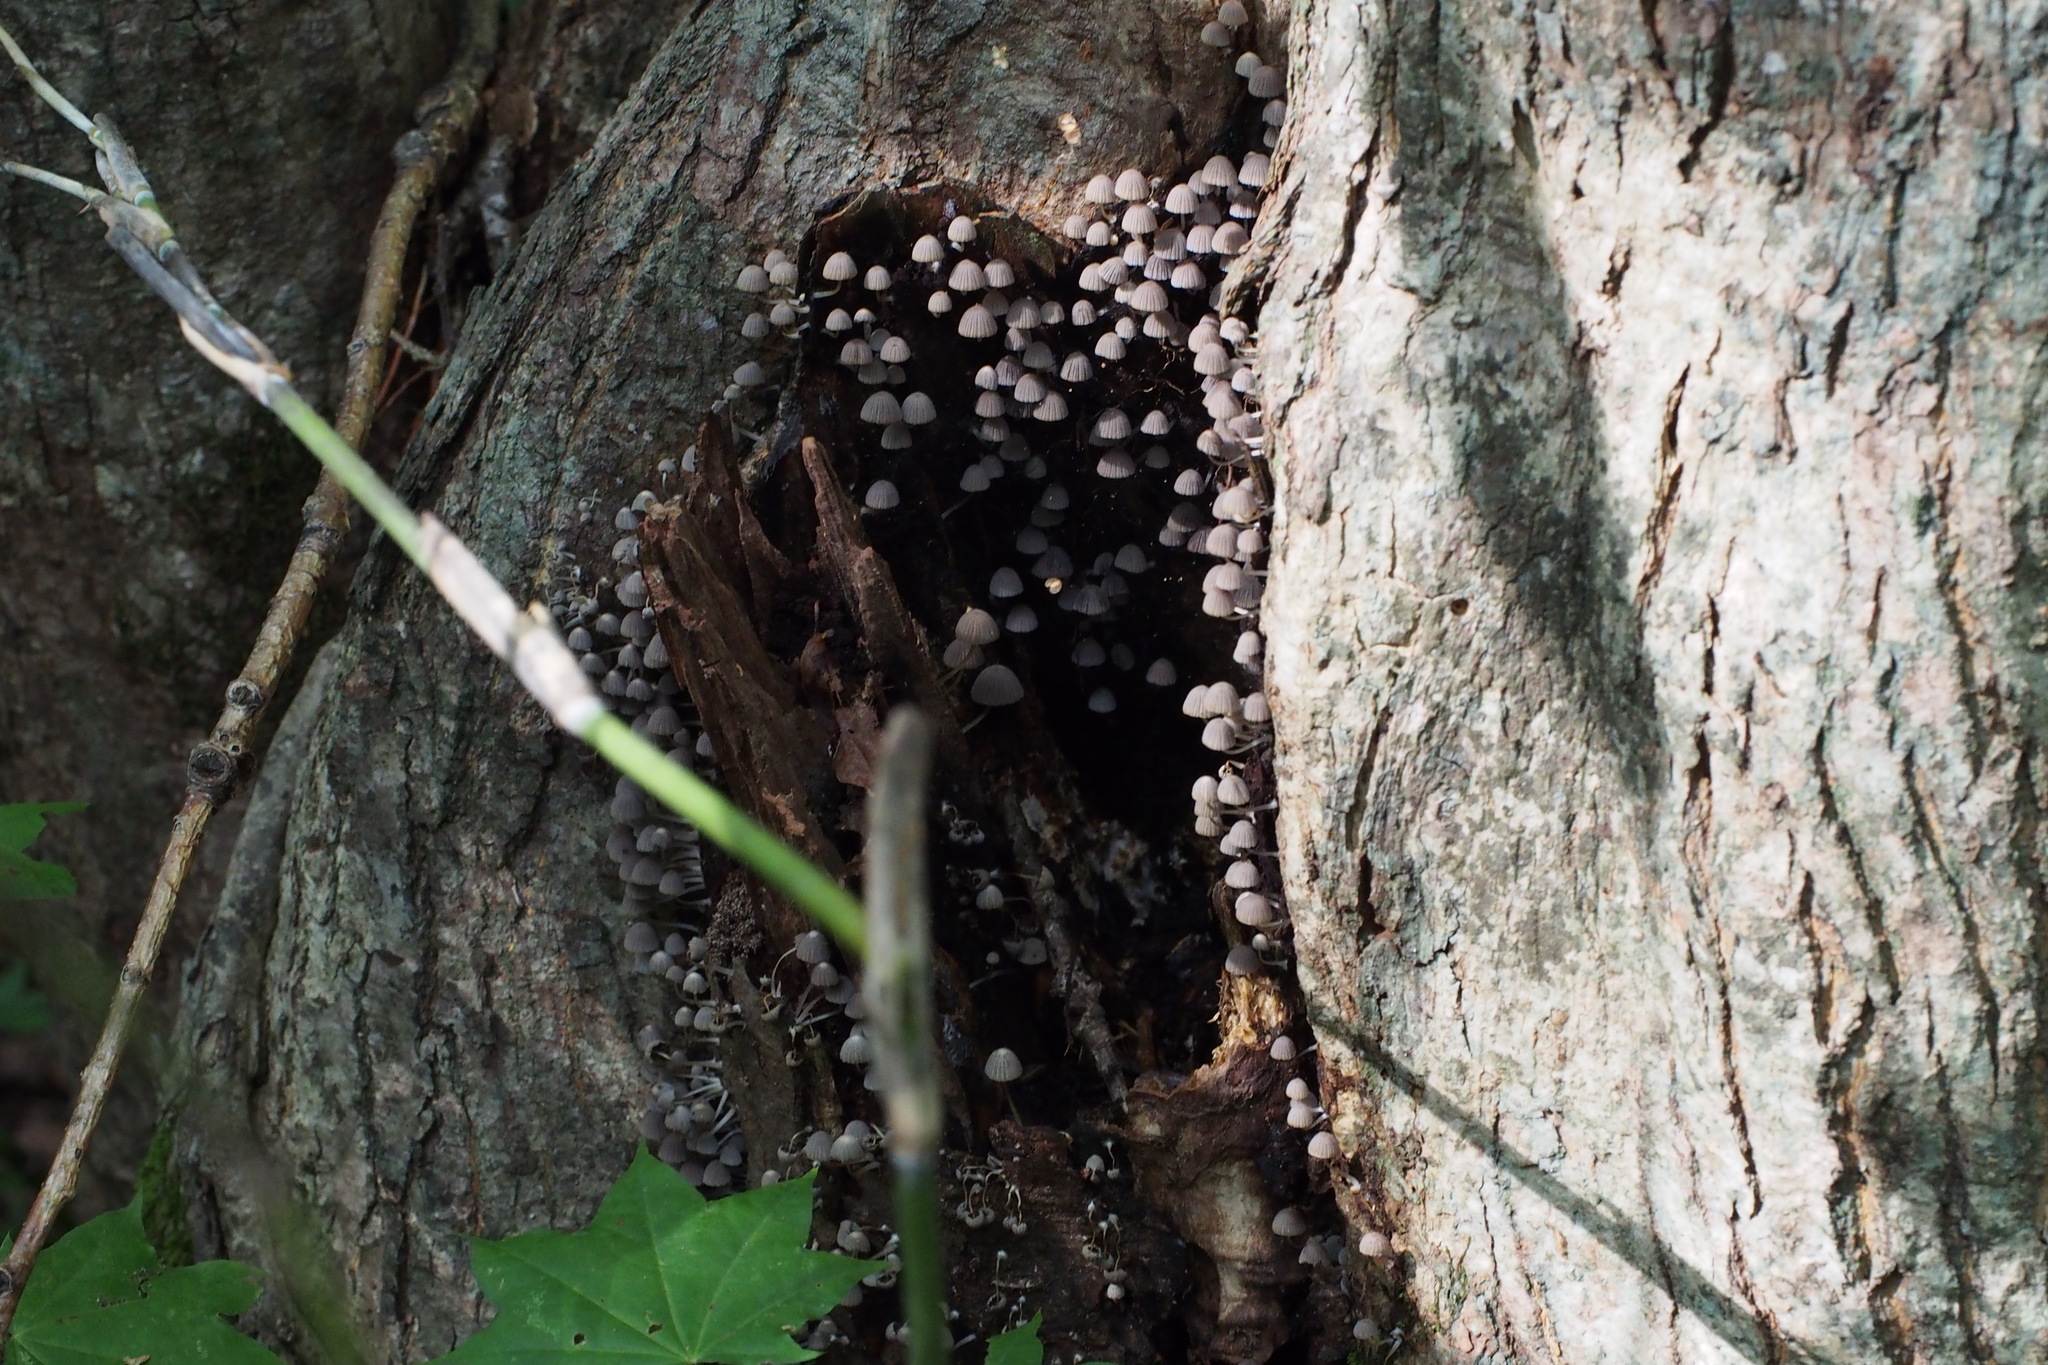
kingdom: Fungi
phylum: Basidiomycota
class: Agaricomycetes
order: Agaricales
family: Psathyrellaceae
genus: Coprinellus
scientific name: Coprinellus disseminatus
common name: Fairies' bonnets
